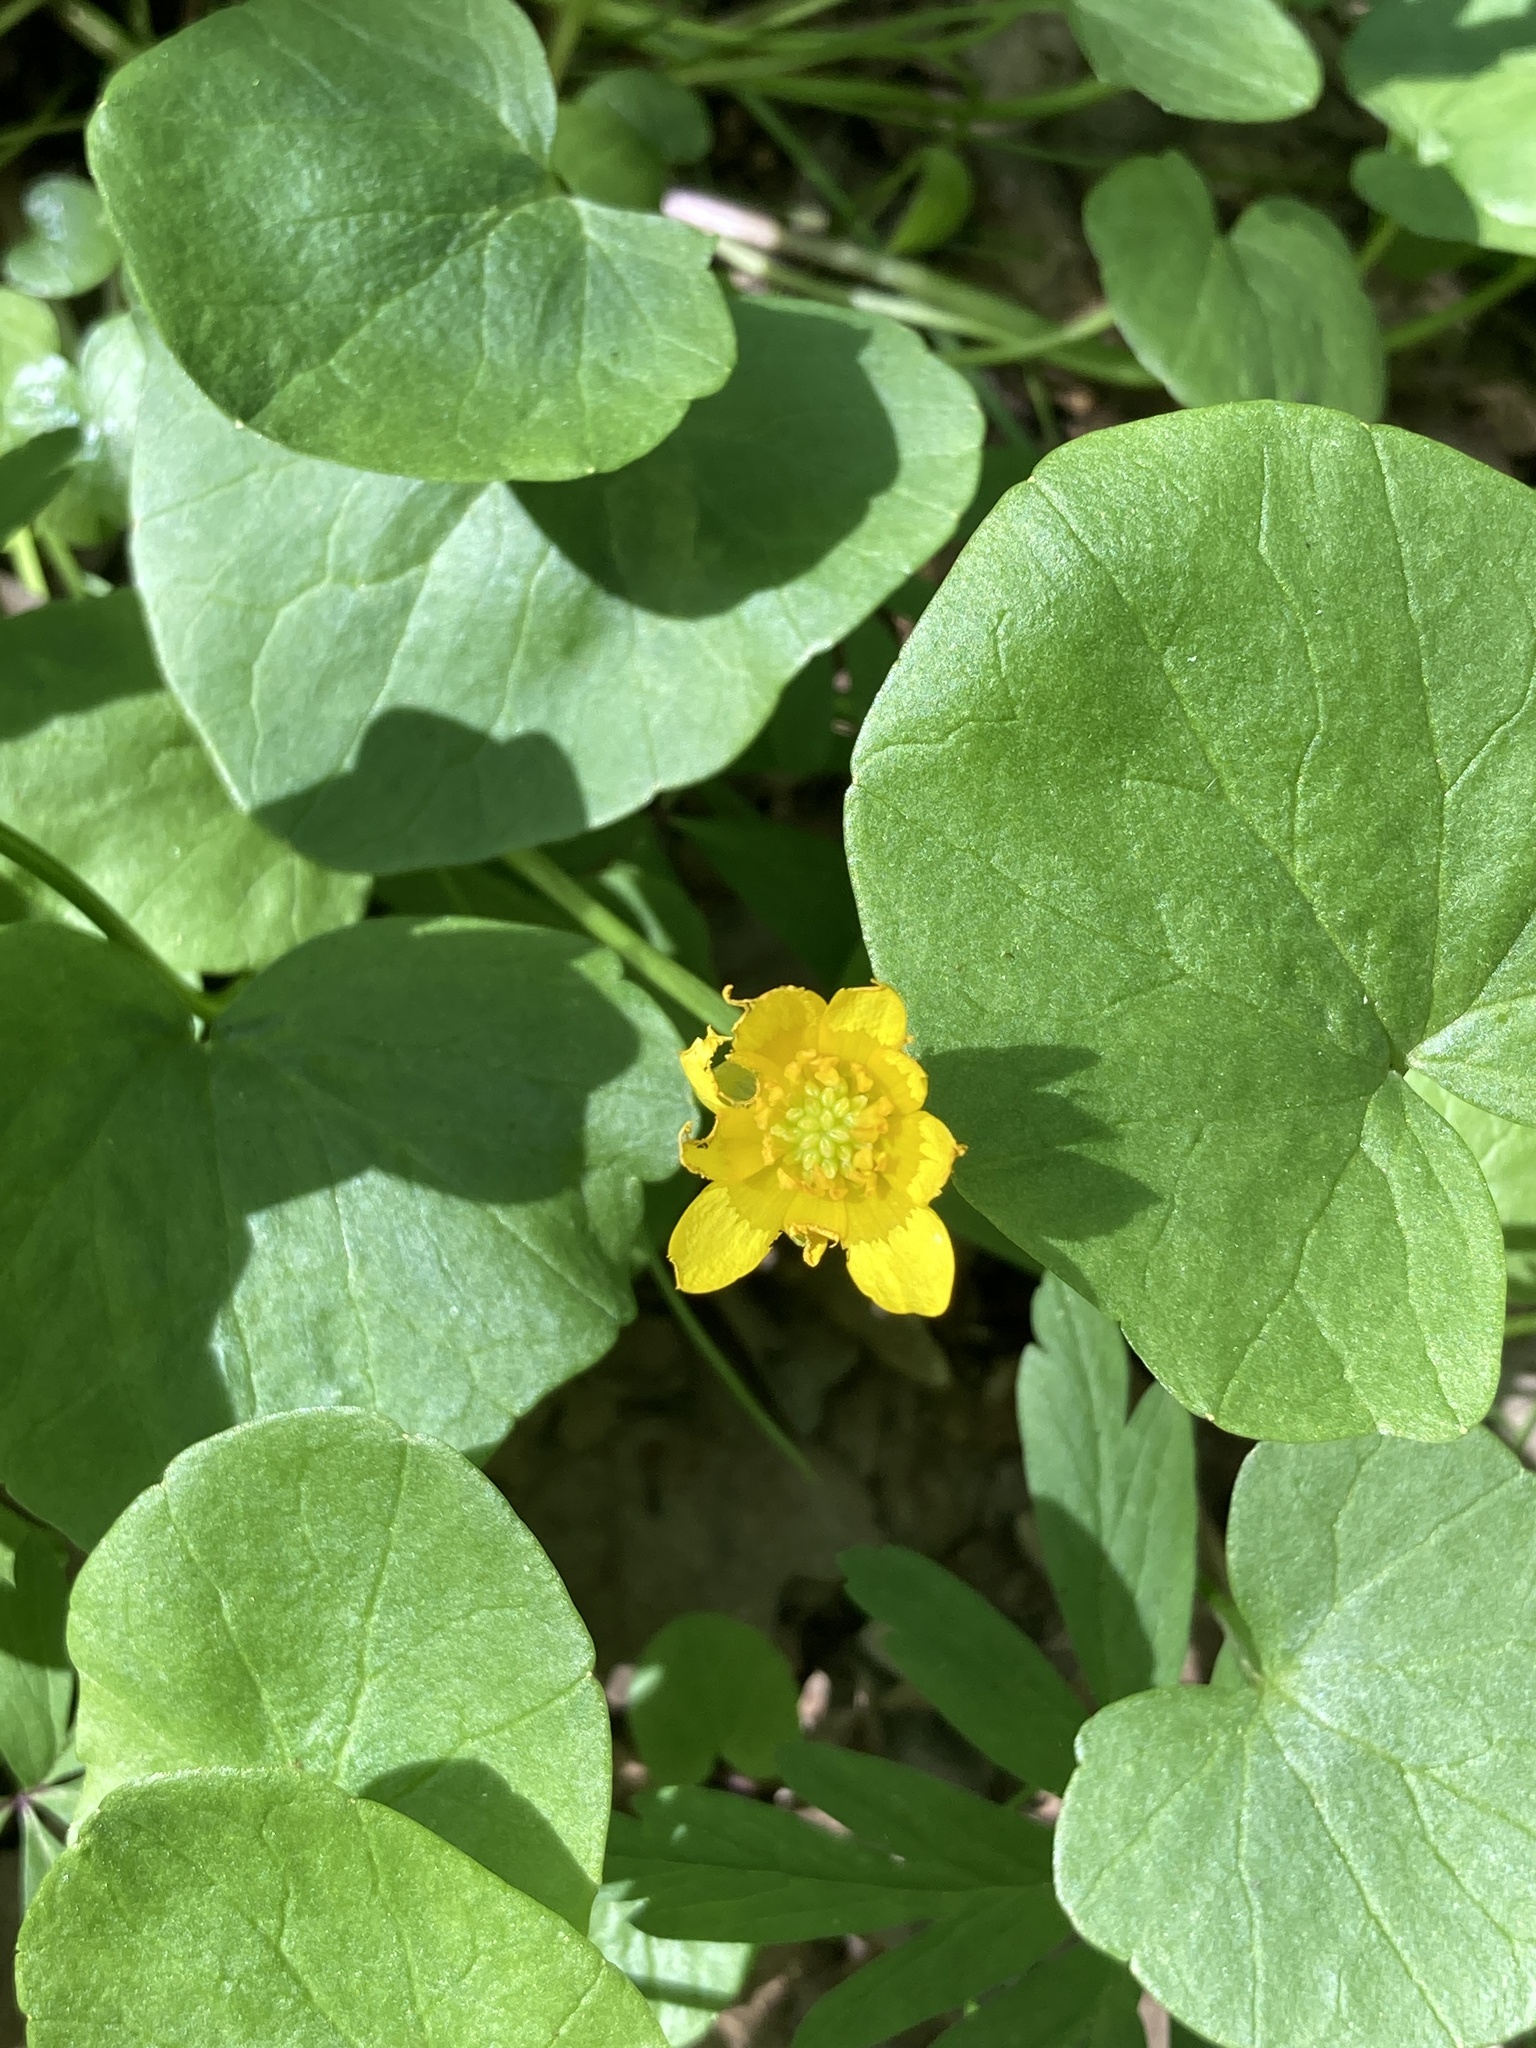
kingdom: Plantae
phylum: Tracheophyta
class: Magnoliopsida
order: Ranunculales
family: Ranunculaceae
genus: Ficaria
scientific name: Ficaria verna
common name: Lesser celandine
